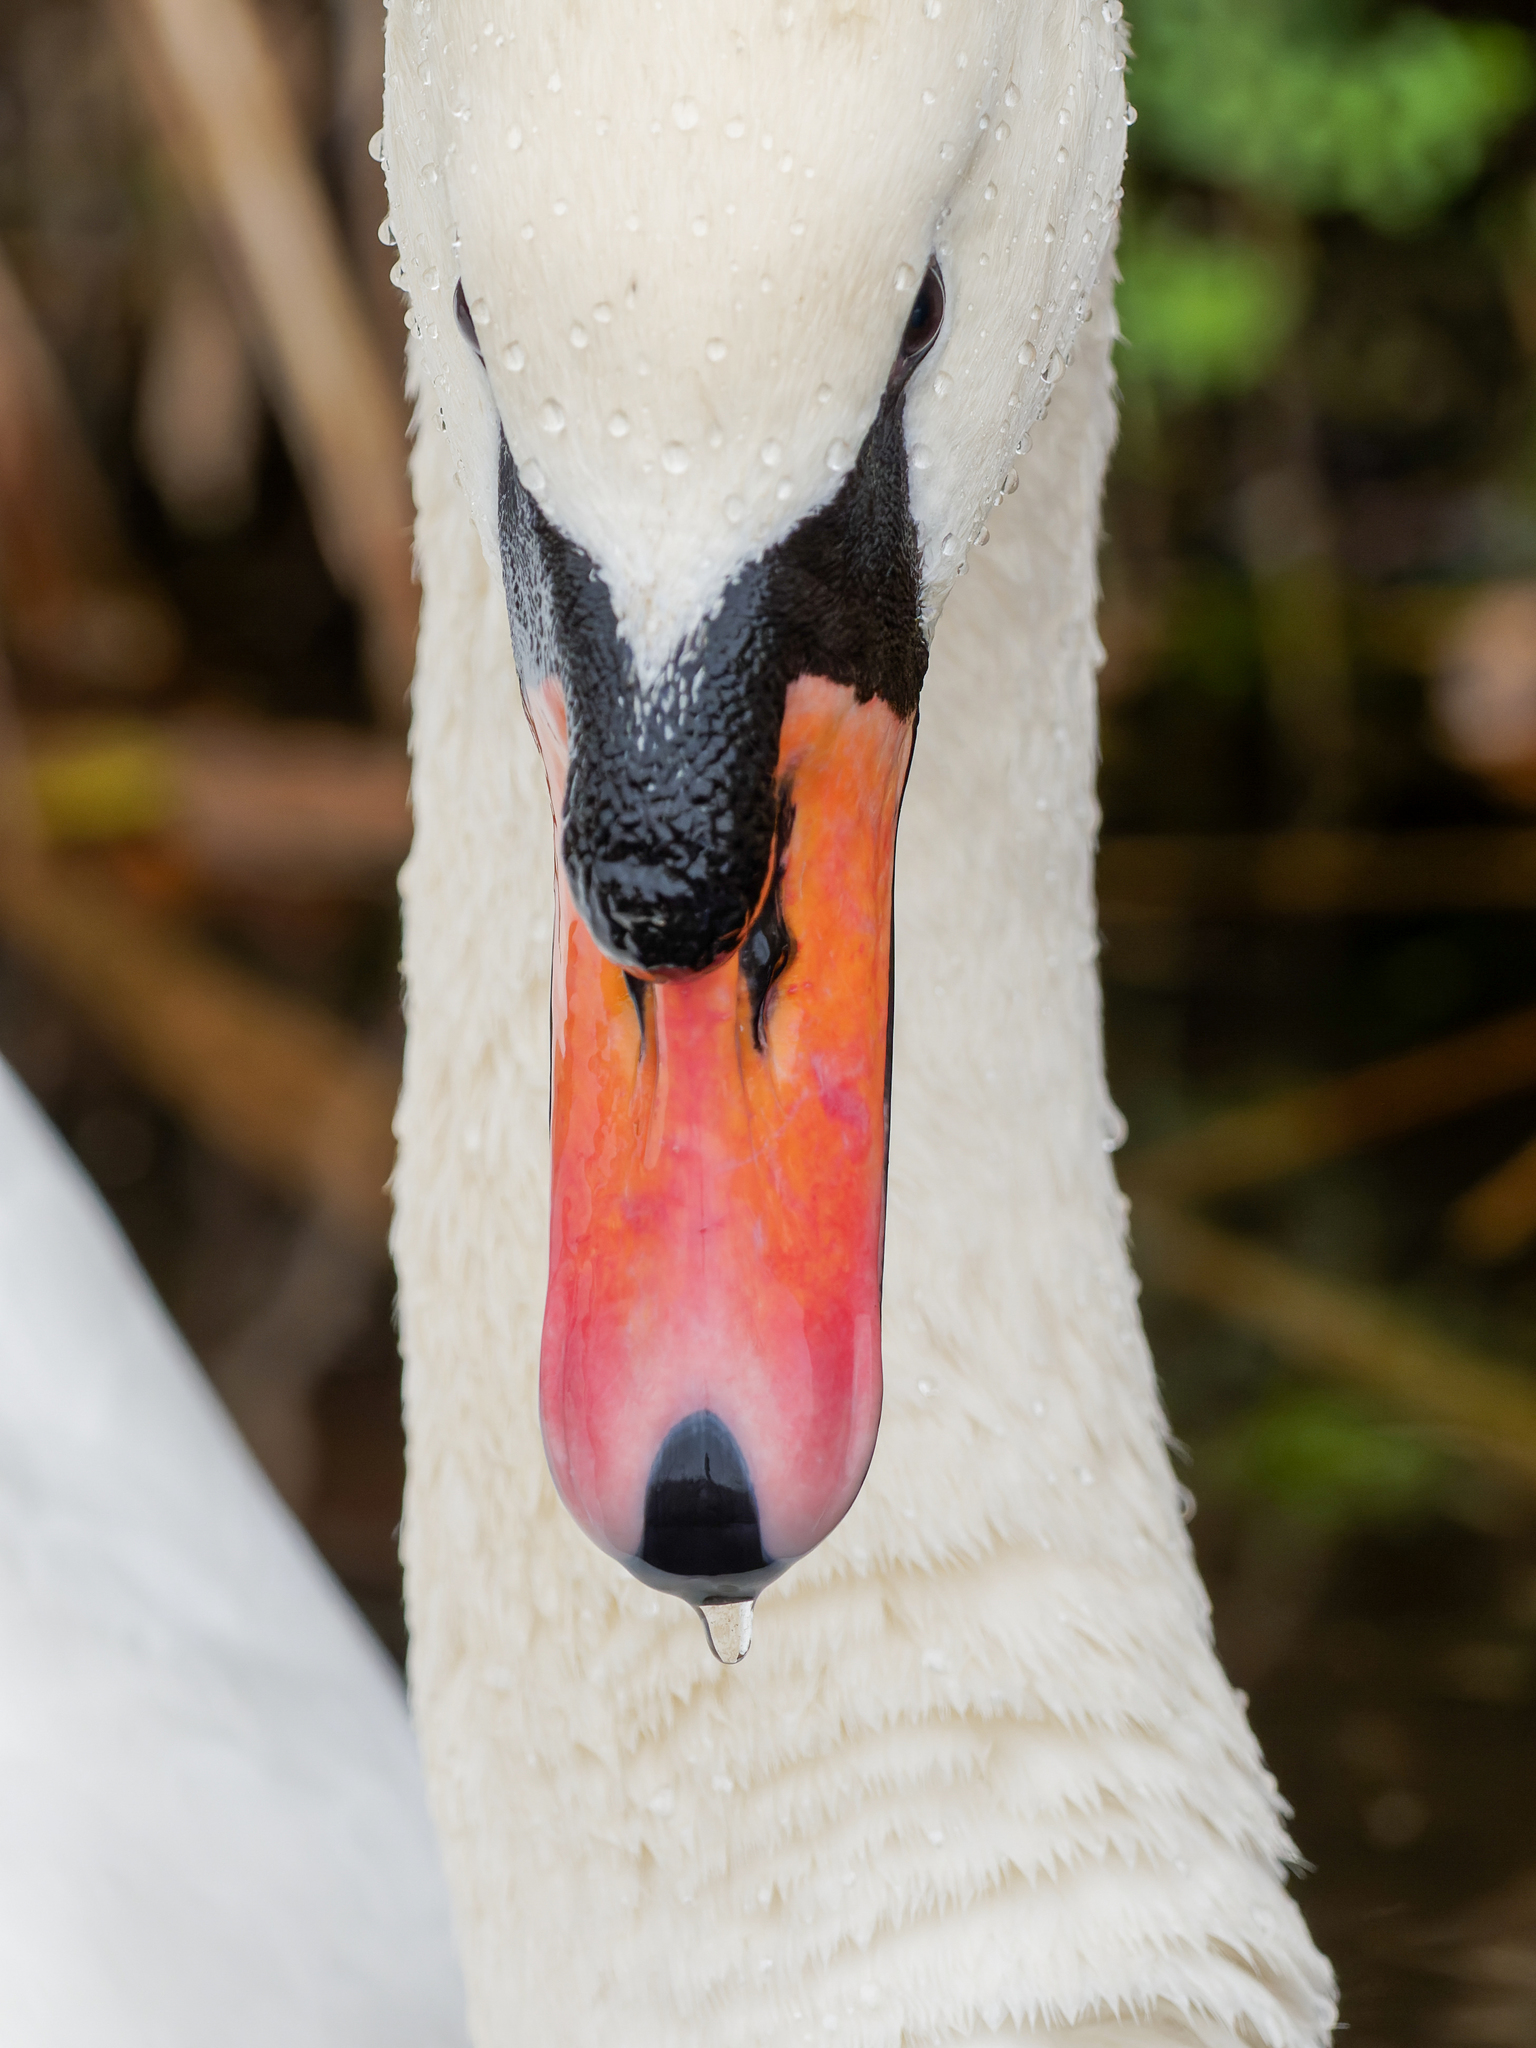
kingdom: Animalia
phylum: Chordata
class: Aves
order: Anseriformes
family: Anatidae
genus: Cygnus
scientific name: Cygnus olor
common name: Mute swan
